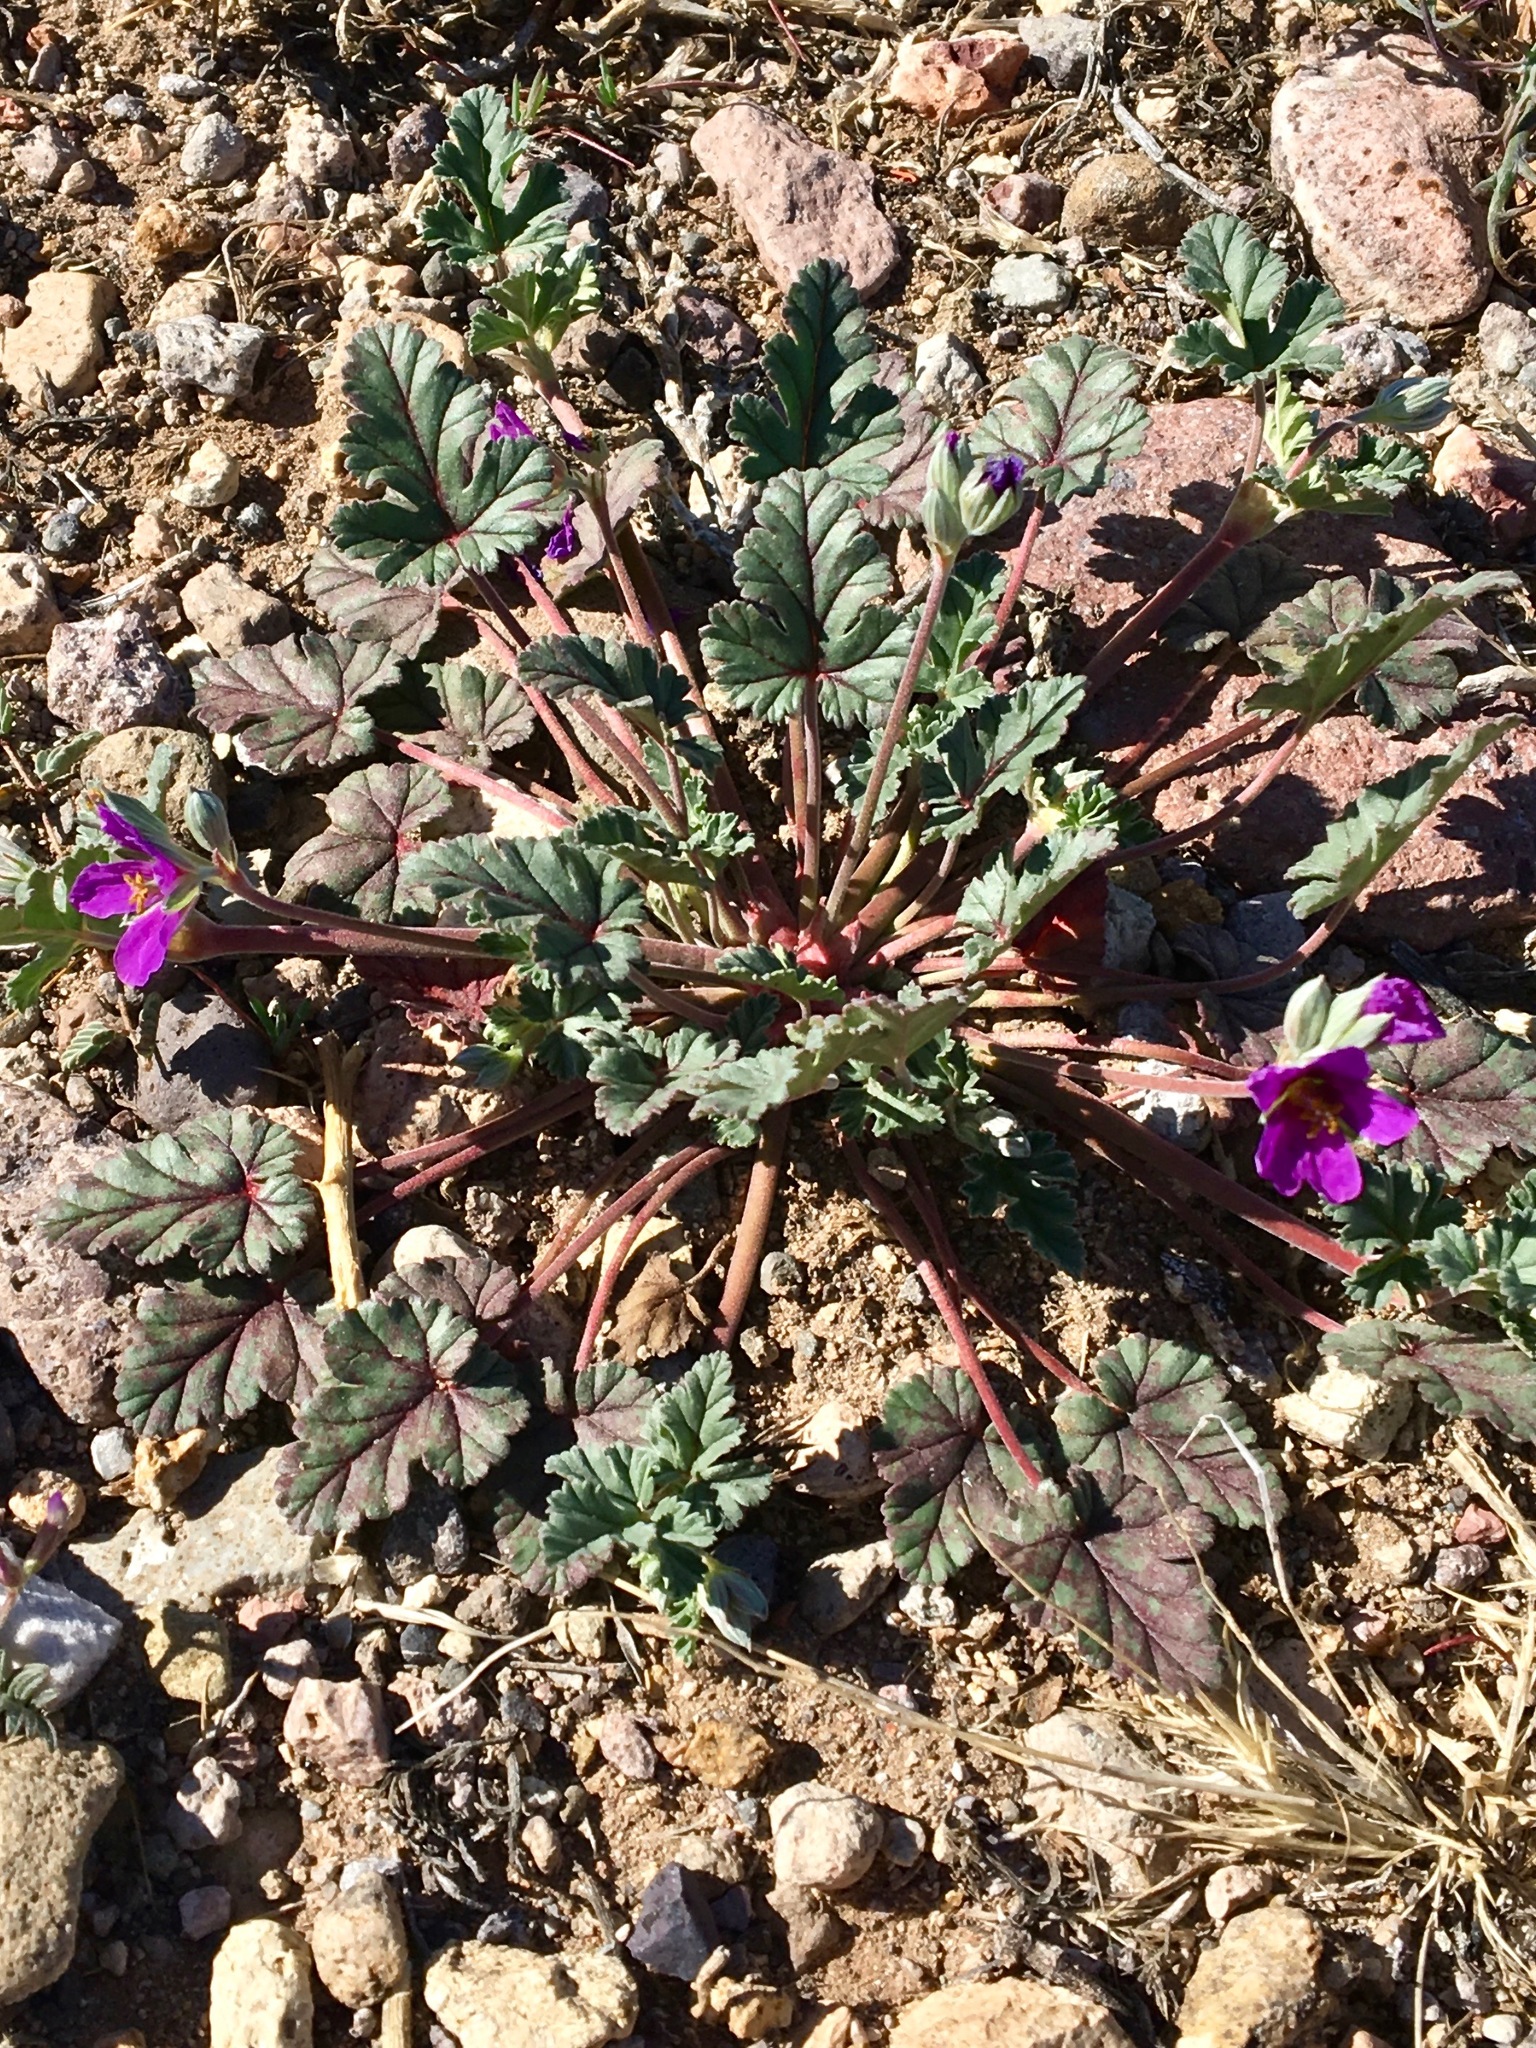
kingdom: Plantae
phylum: Tracheophyta
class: Magnoliopsida
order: Geraniales
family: Geraniaceae
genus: Erodium
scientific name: Erodium texanum
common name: Texas stork's-bill
